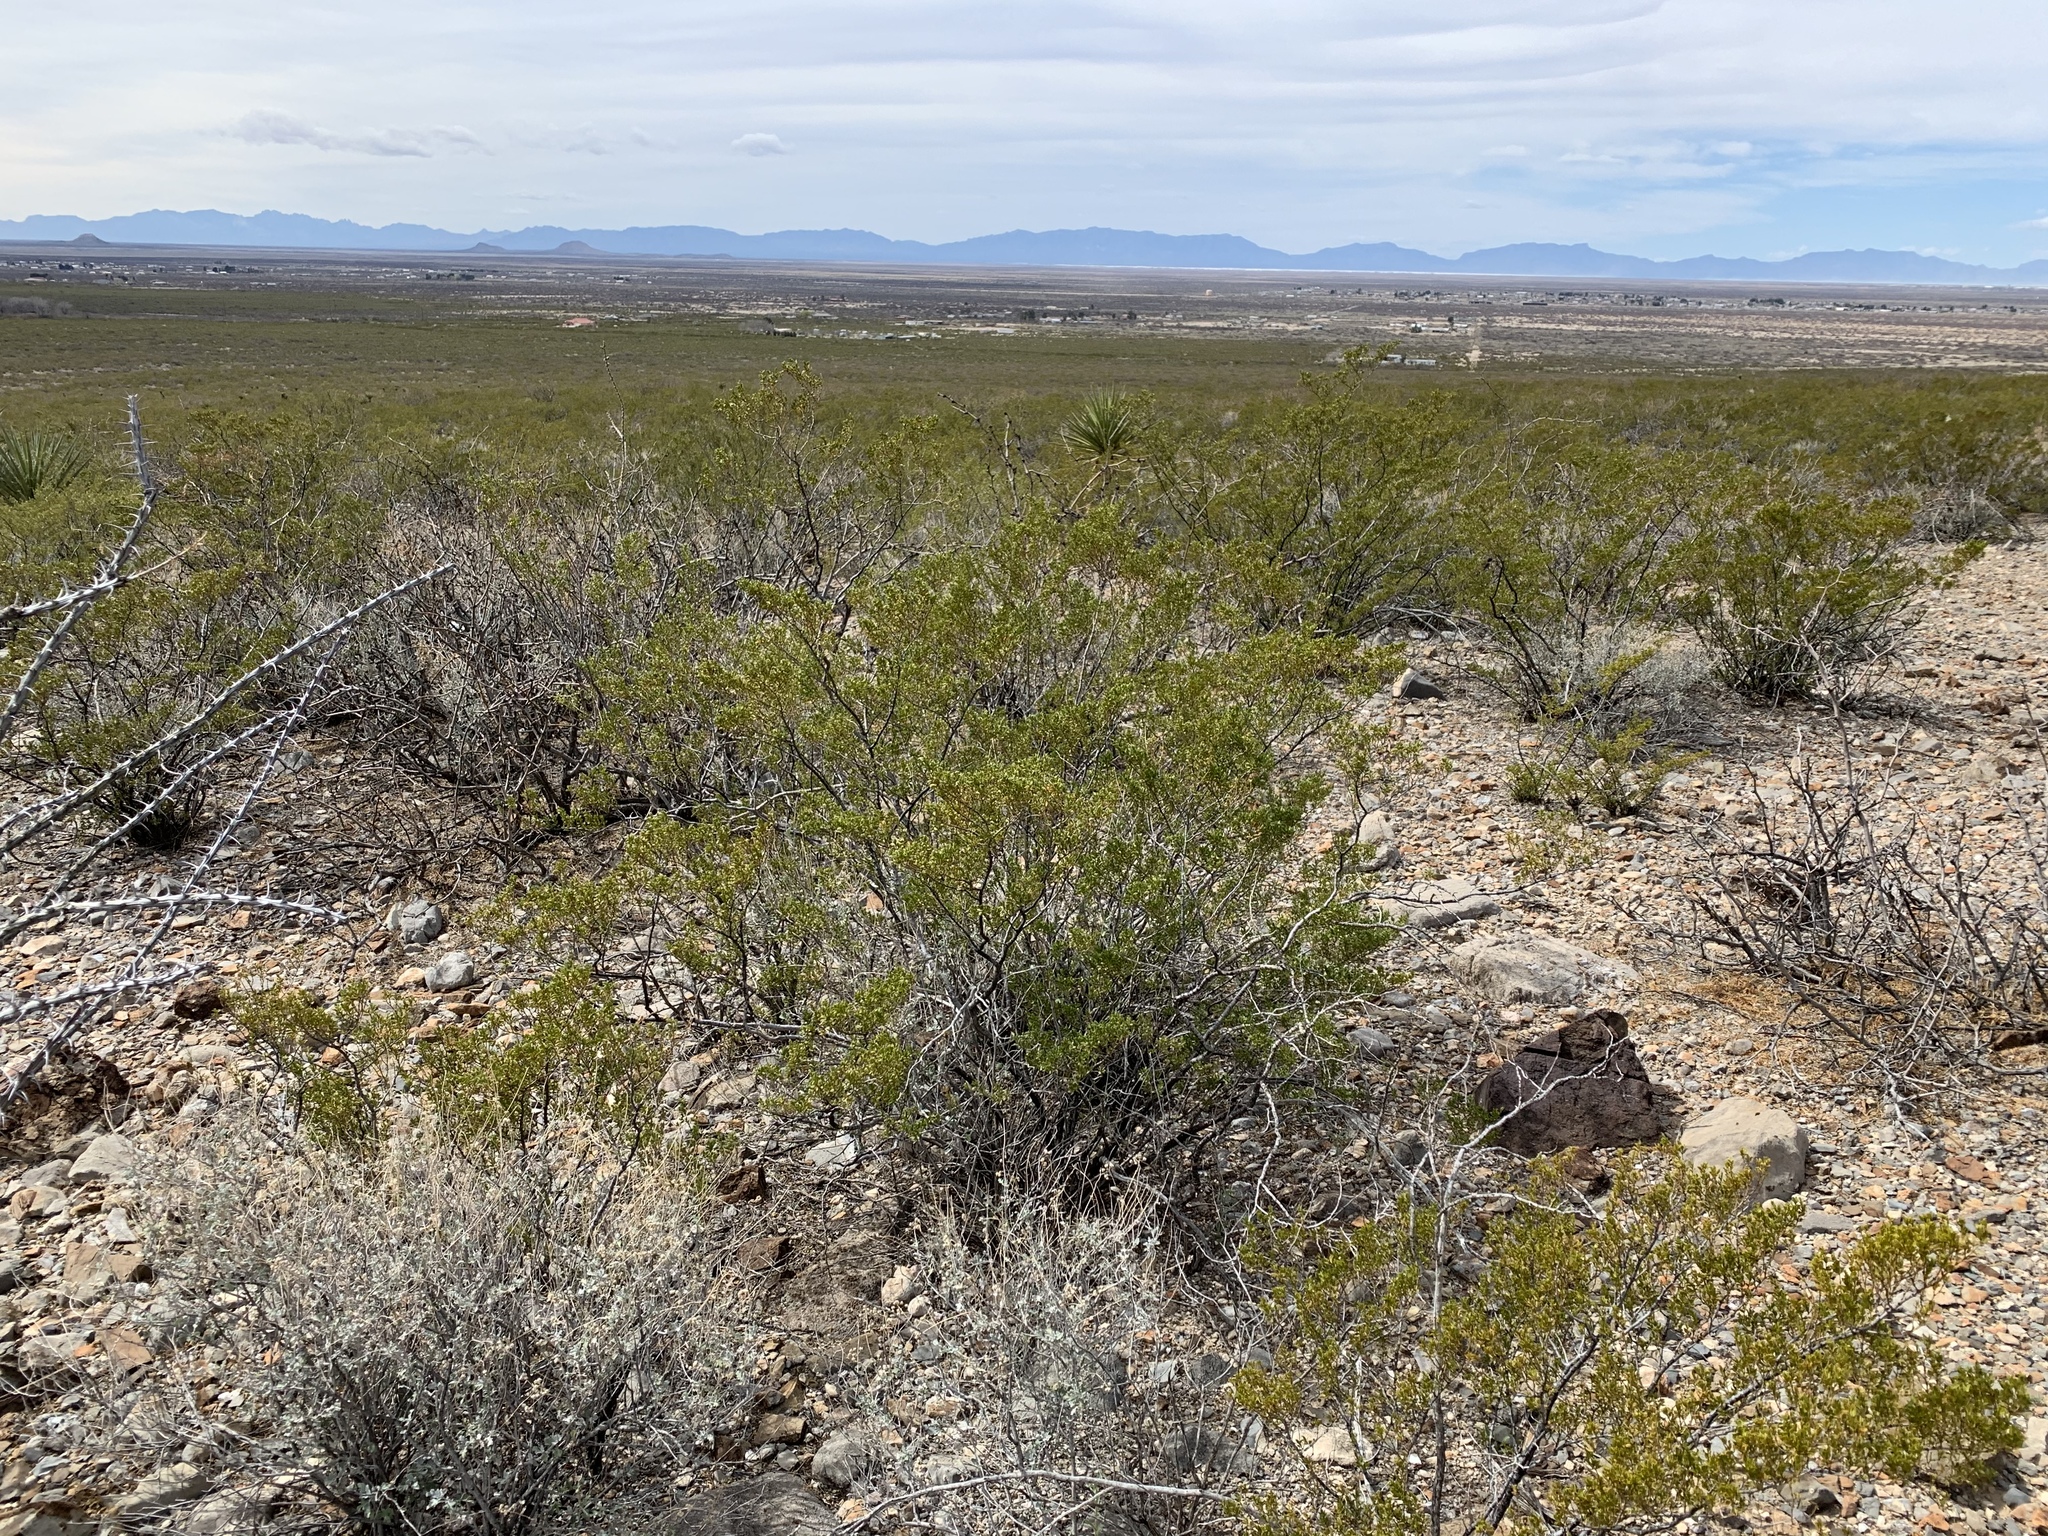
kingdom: Plantae
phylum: Tracheophyta
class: Magnoliopsida
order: Zygophyllales
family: Zygophyllaceae
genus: Larrea
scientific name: Larrea tridentata
